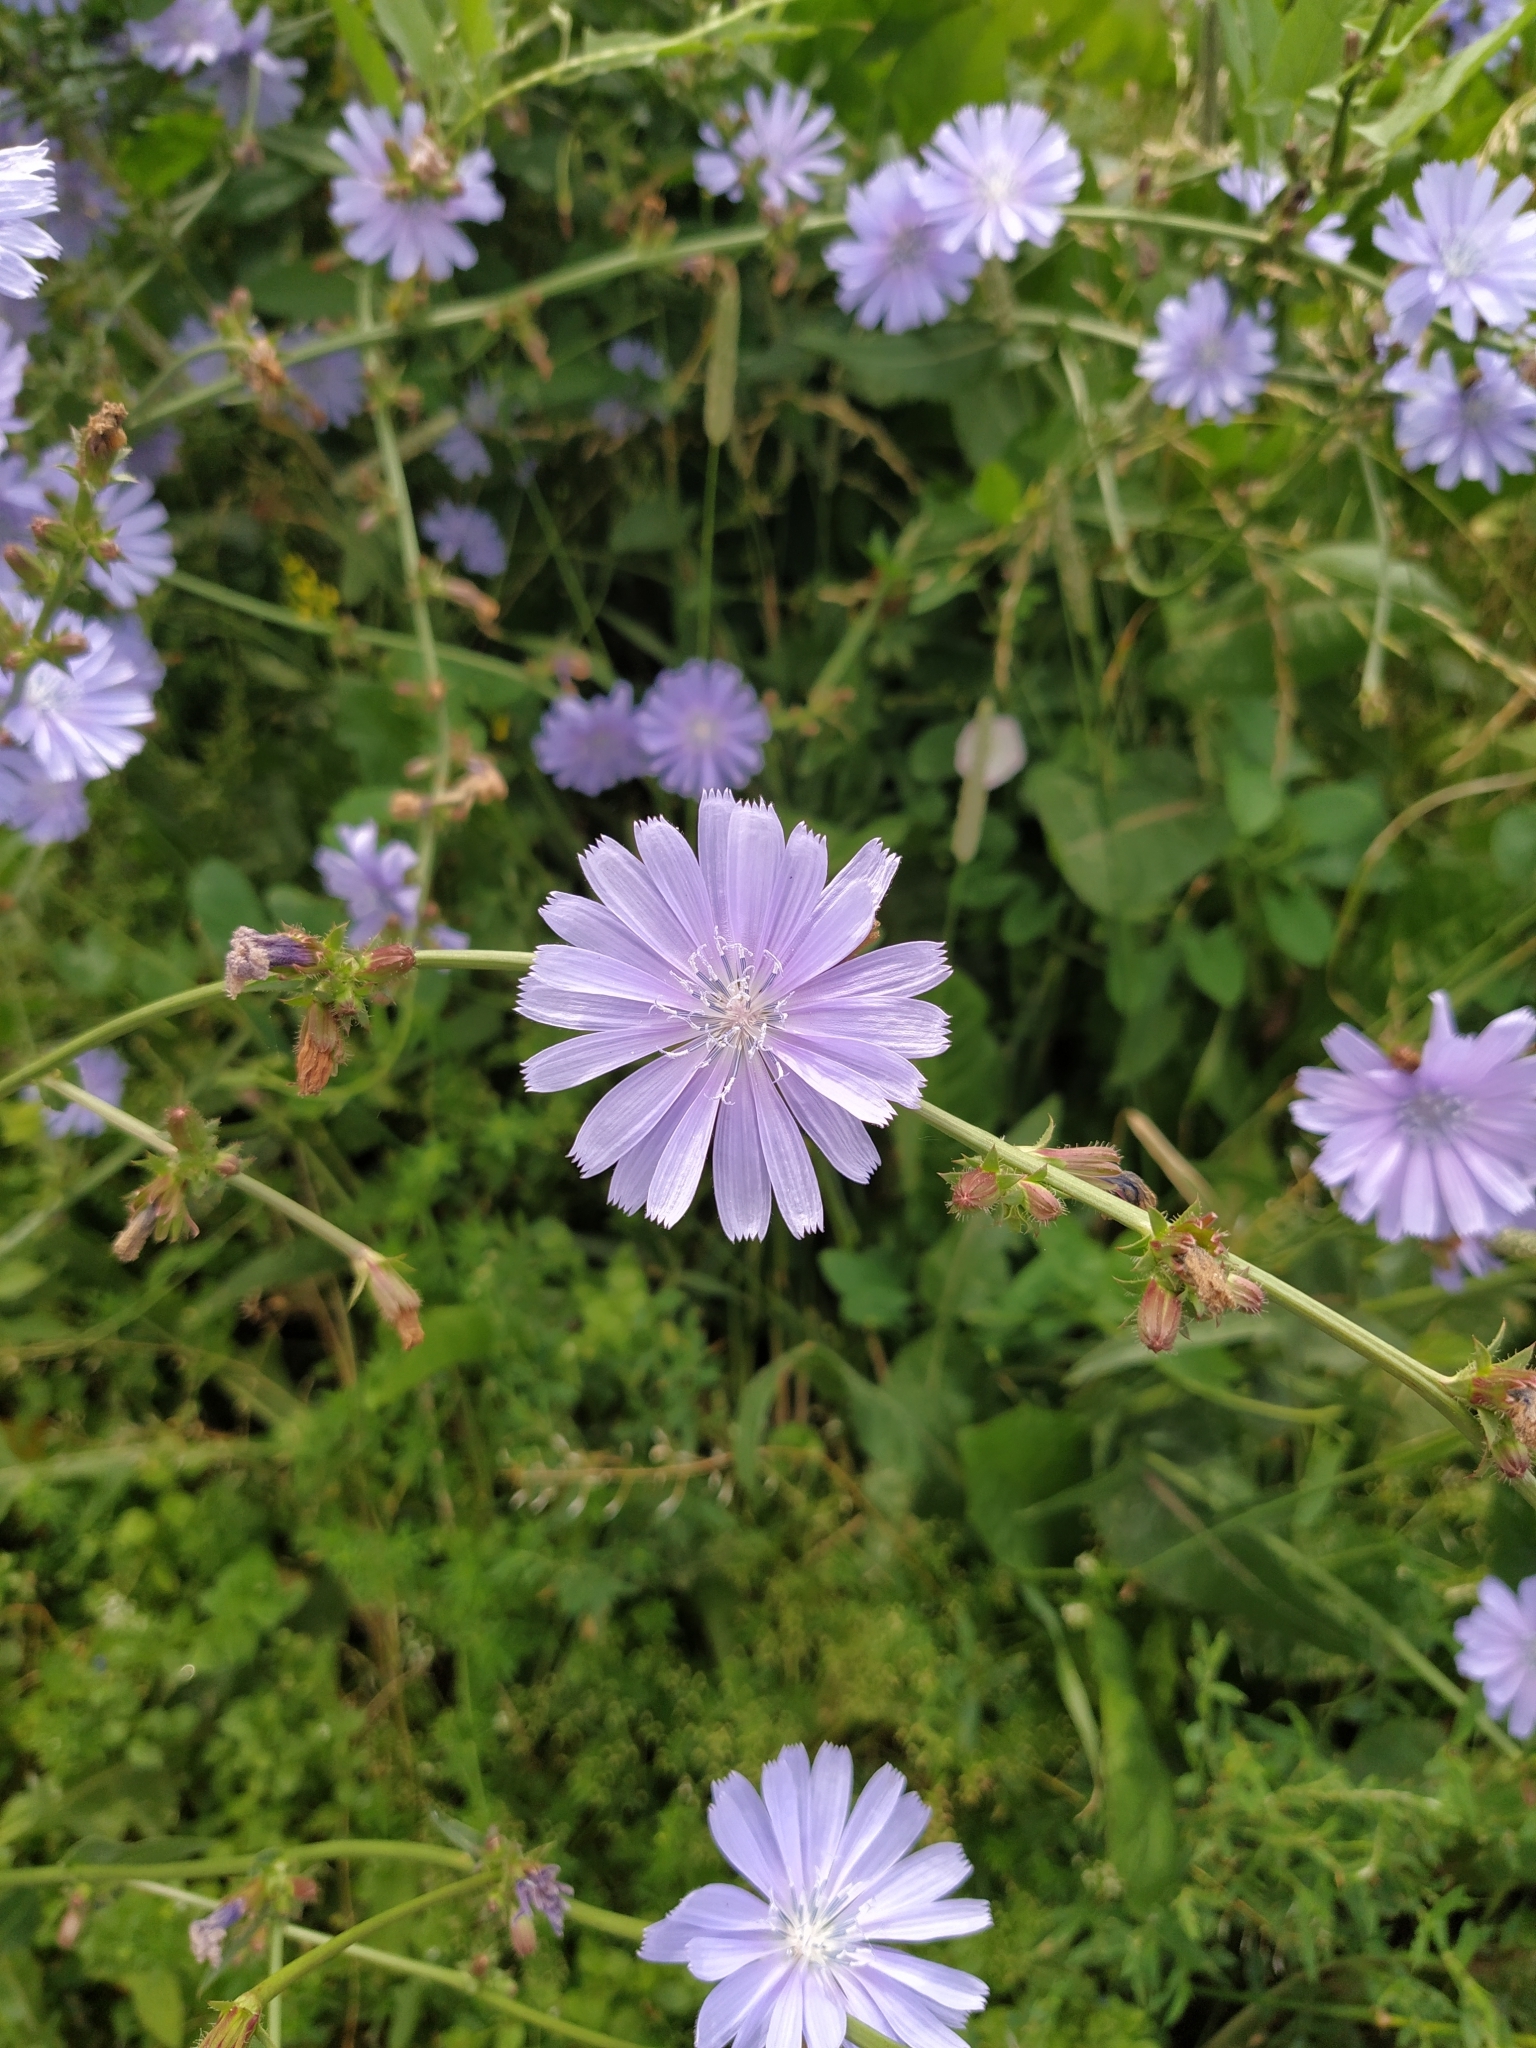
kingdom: Plantae
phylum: Tracheophyta
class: Magnoliopsida
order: Asterales
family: Asteraceae
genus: Cichorium
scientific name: Cichorium intybus
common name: Chicory
